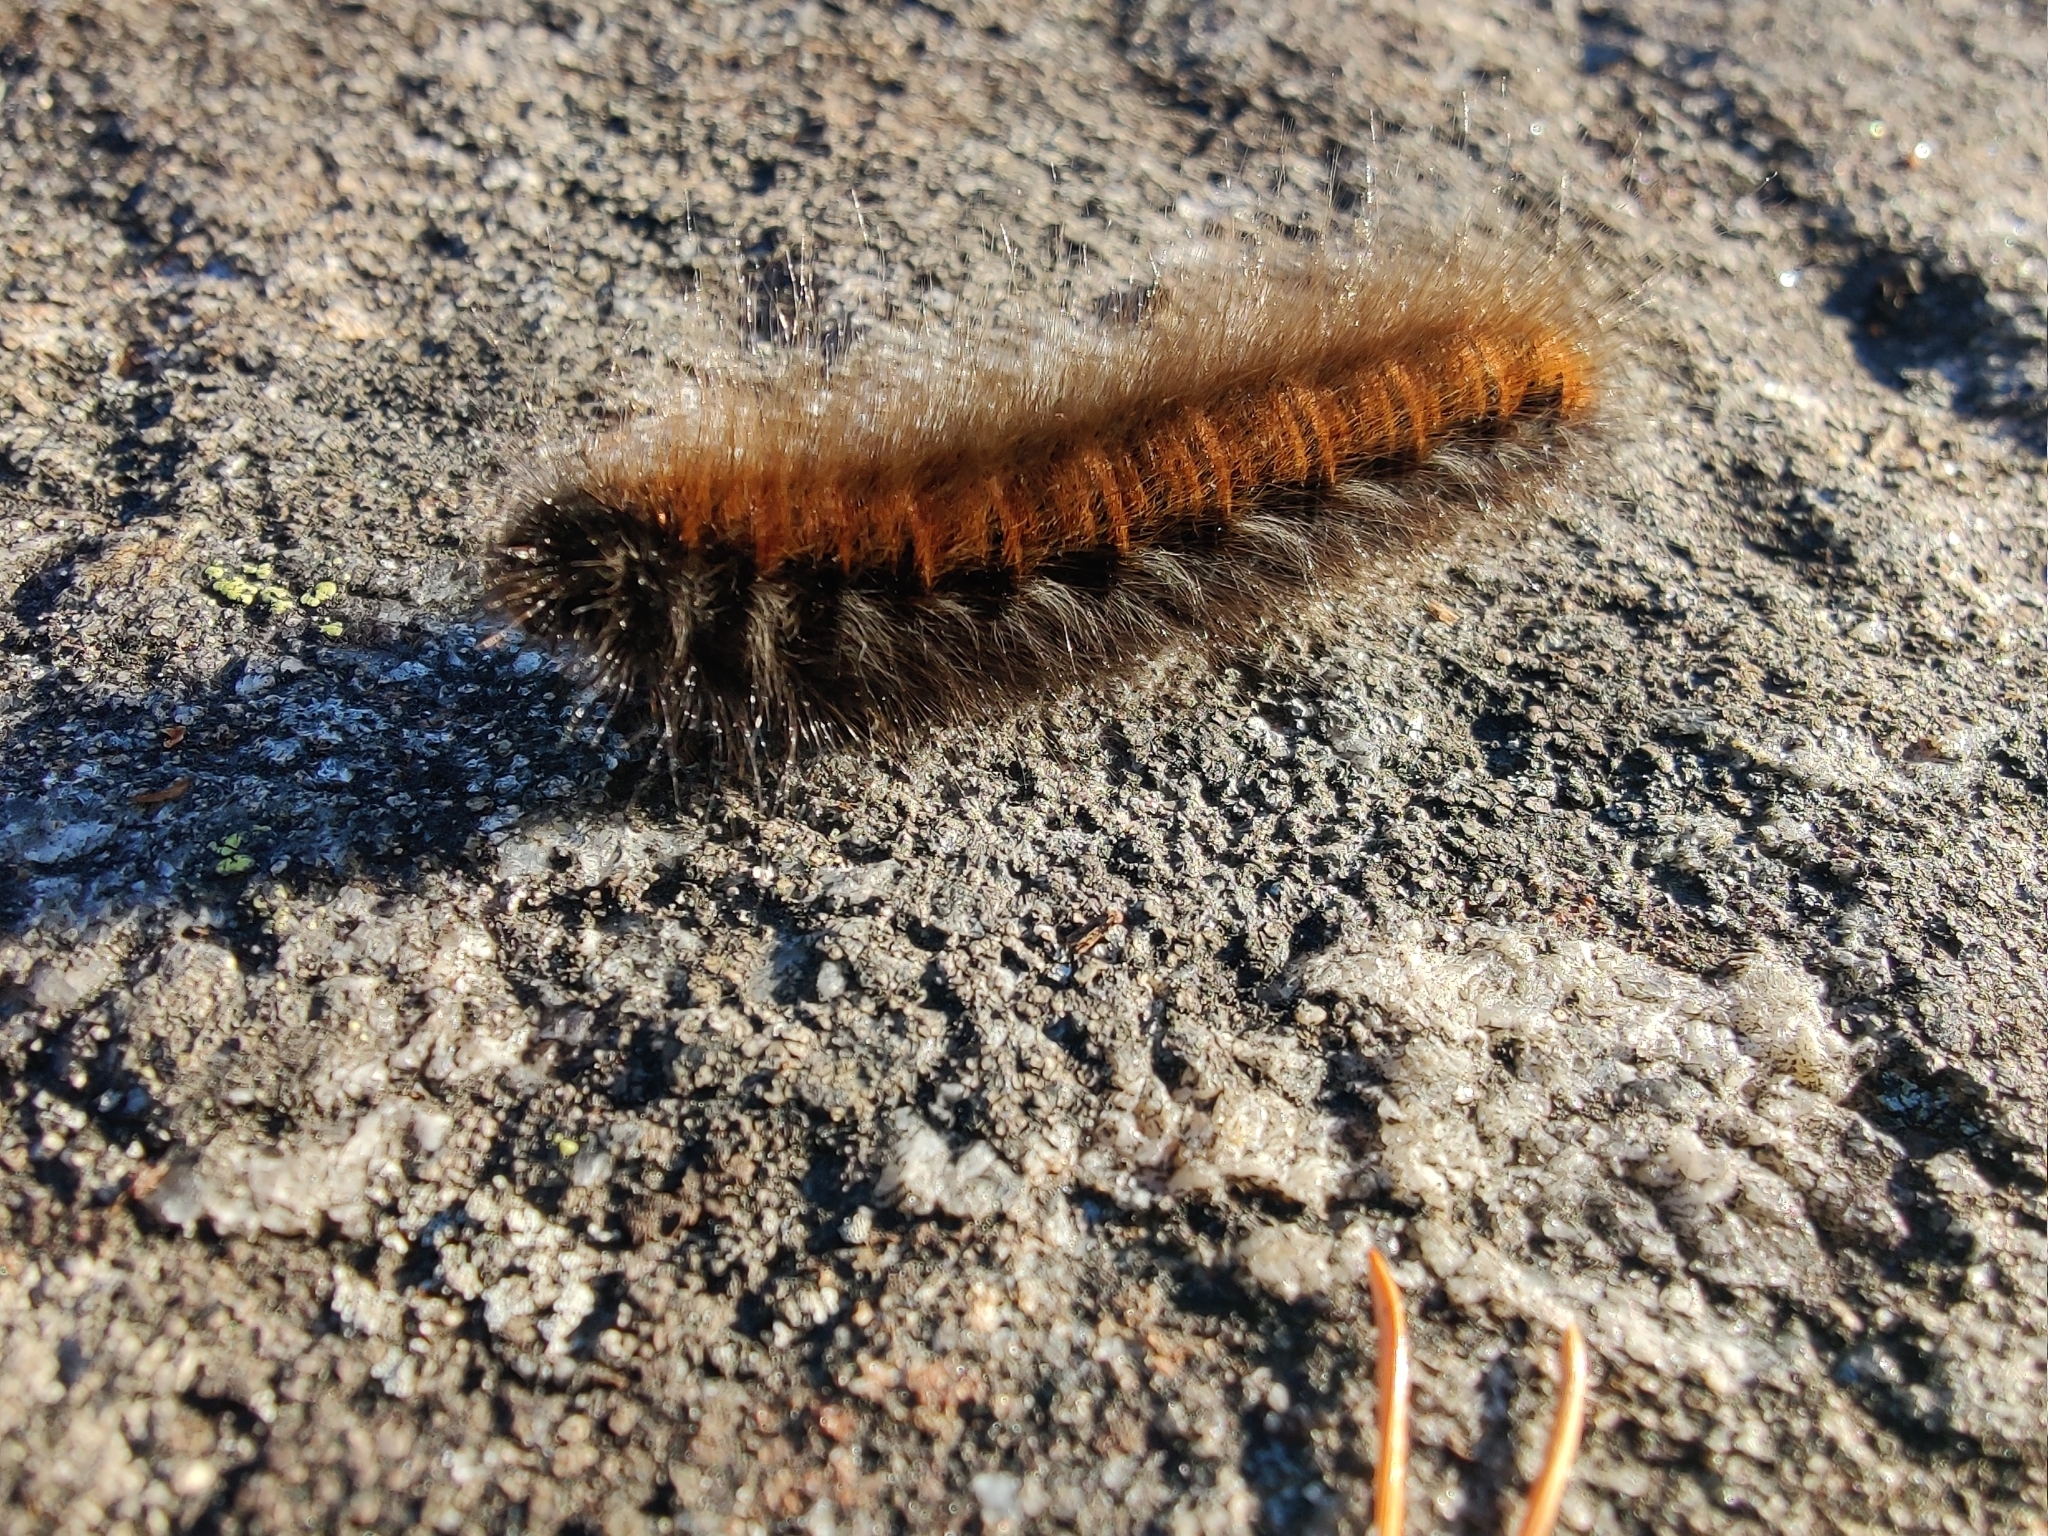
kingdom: Animalia
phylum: Arthropoda
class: Insecta
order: Lepidoptera
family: Lasiocampidae
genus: Macrothylacia
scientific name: Macrothylacia rubi
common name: Fox moth
